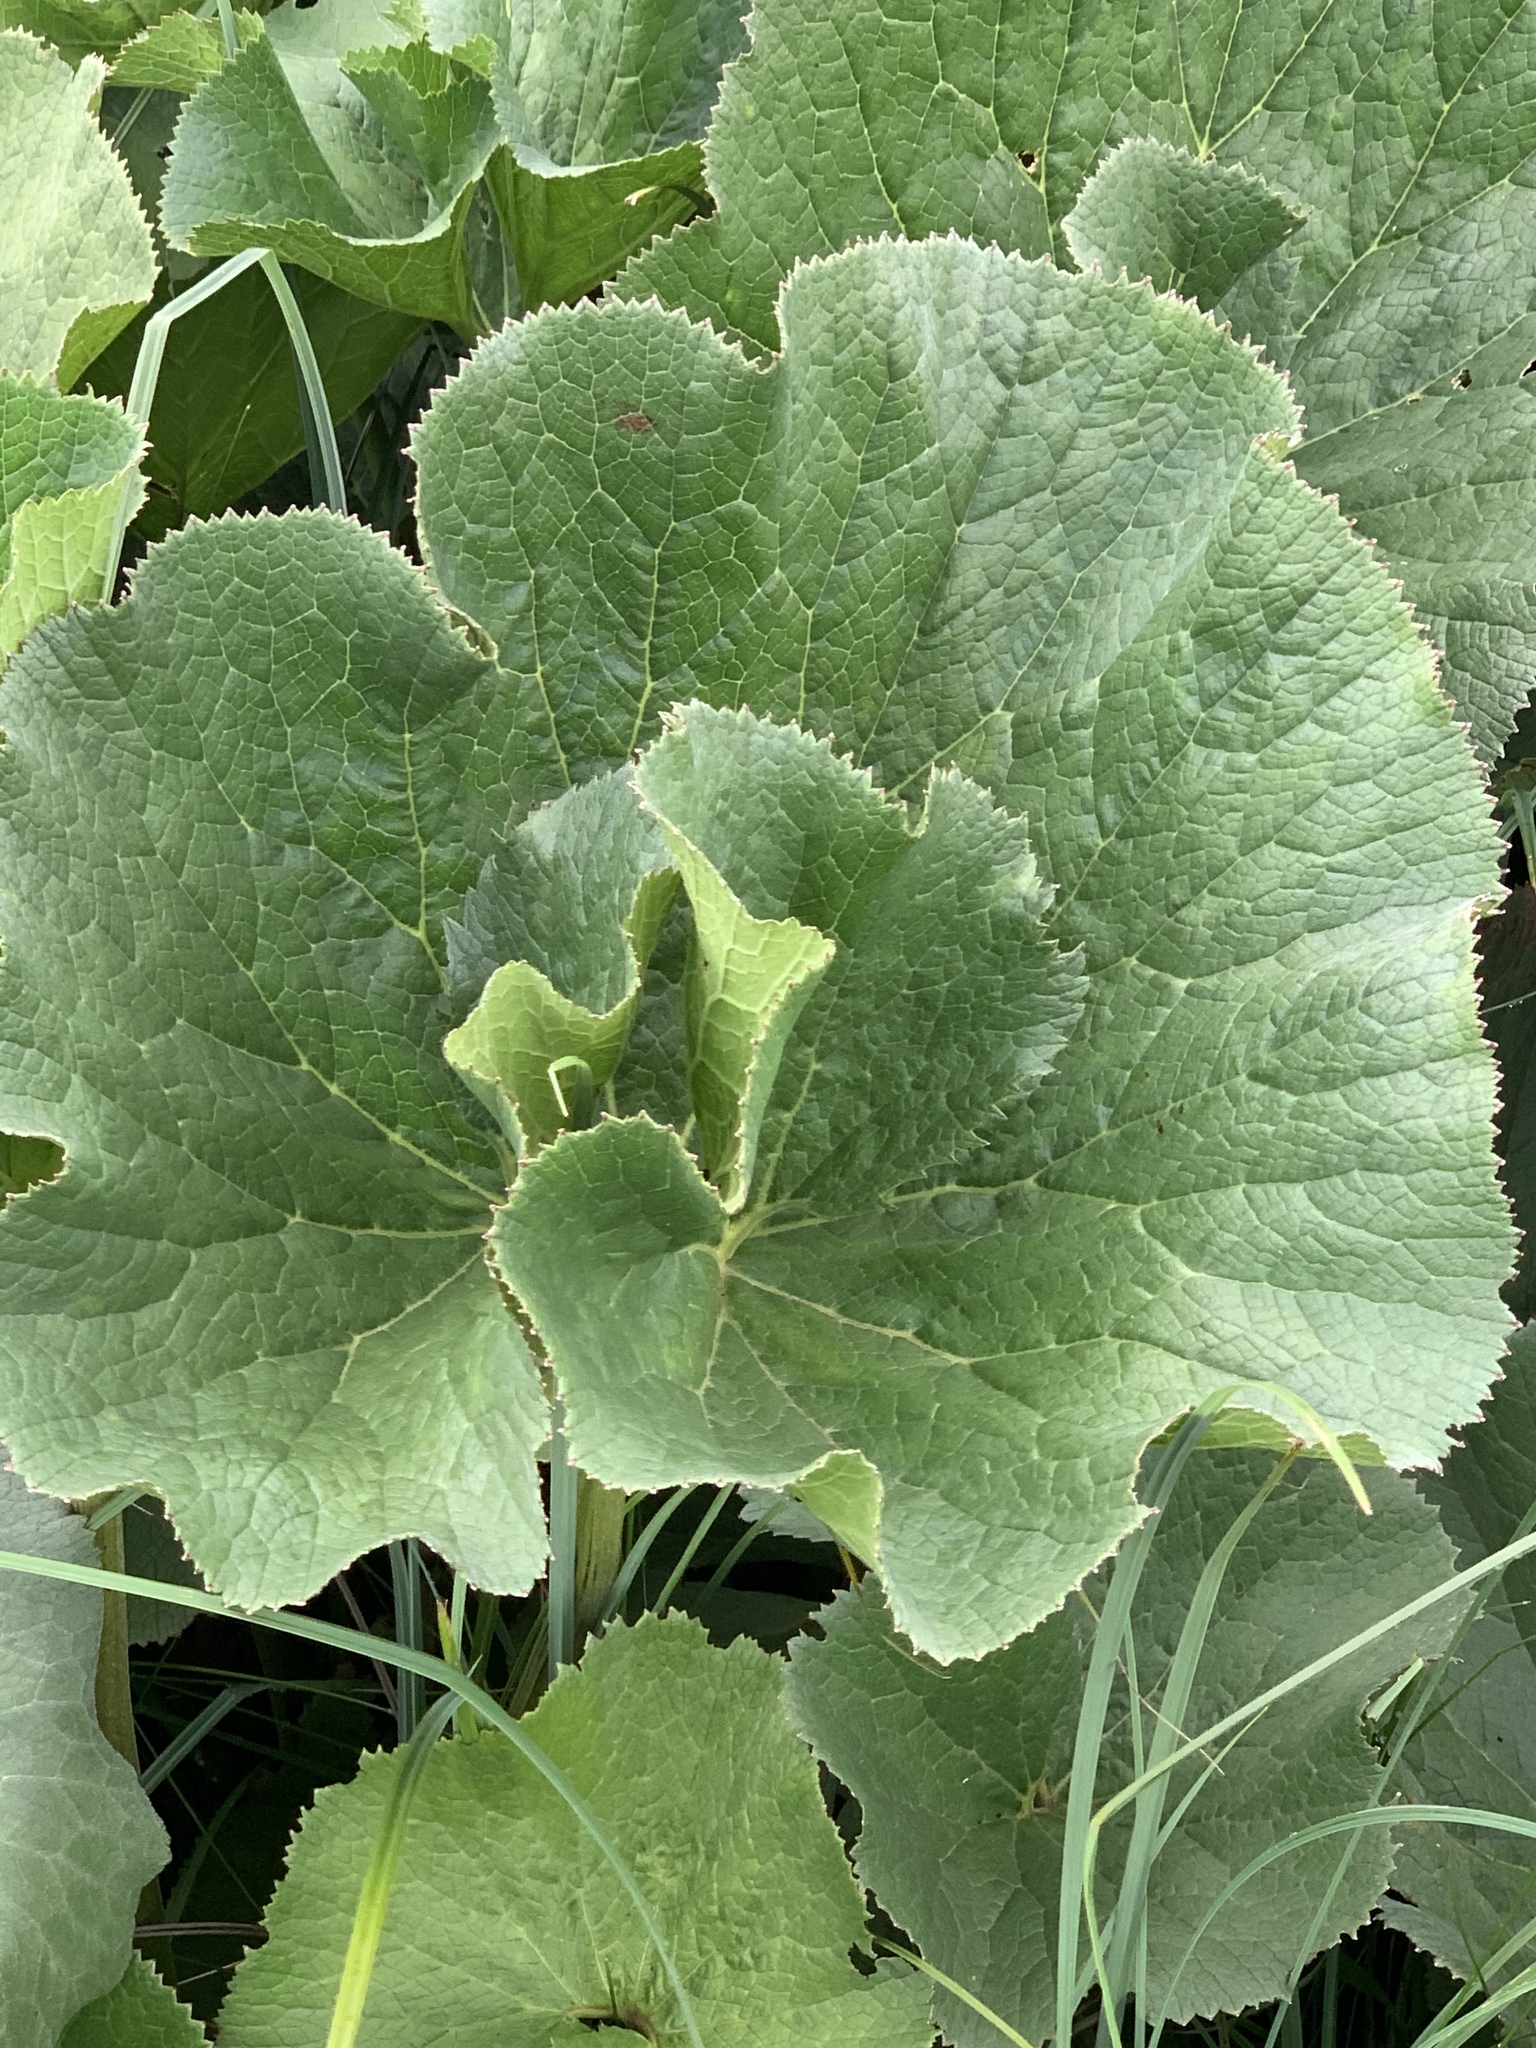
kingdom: Plantae
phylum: Tracheophyta
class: Magnoliopsida
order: Gunnerales
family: Gunneraceae
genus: Gunnera
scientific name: Gunnera perpensa
